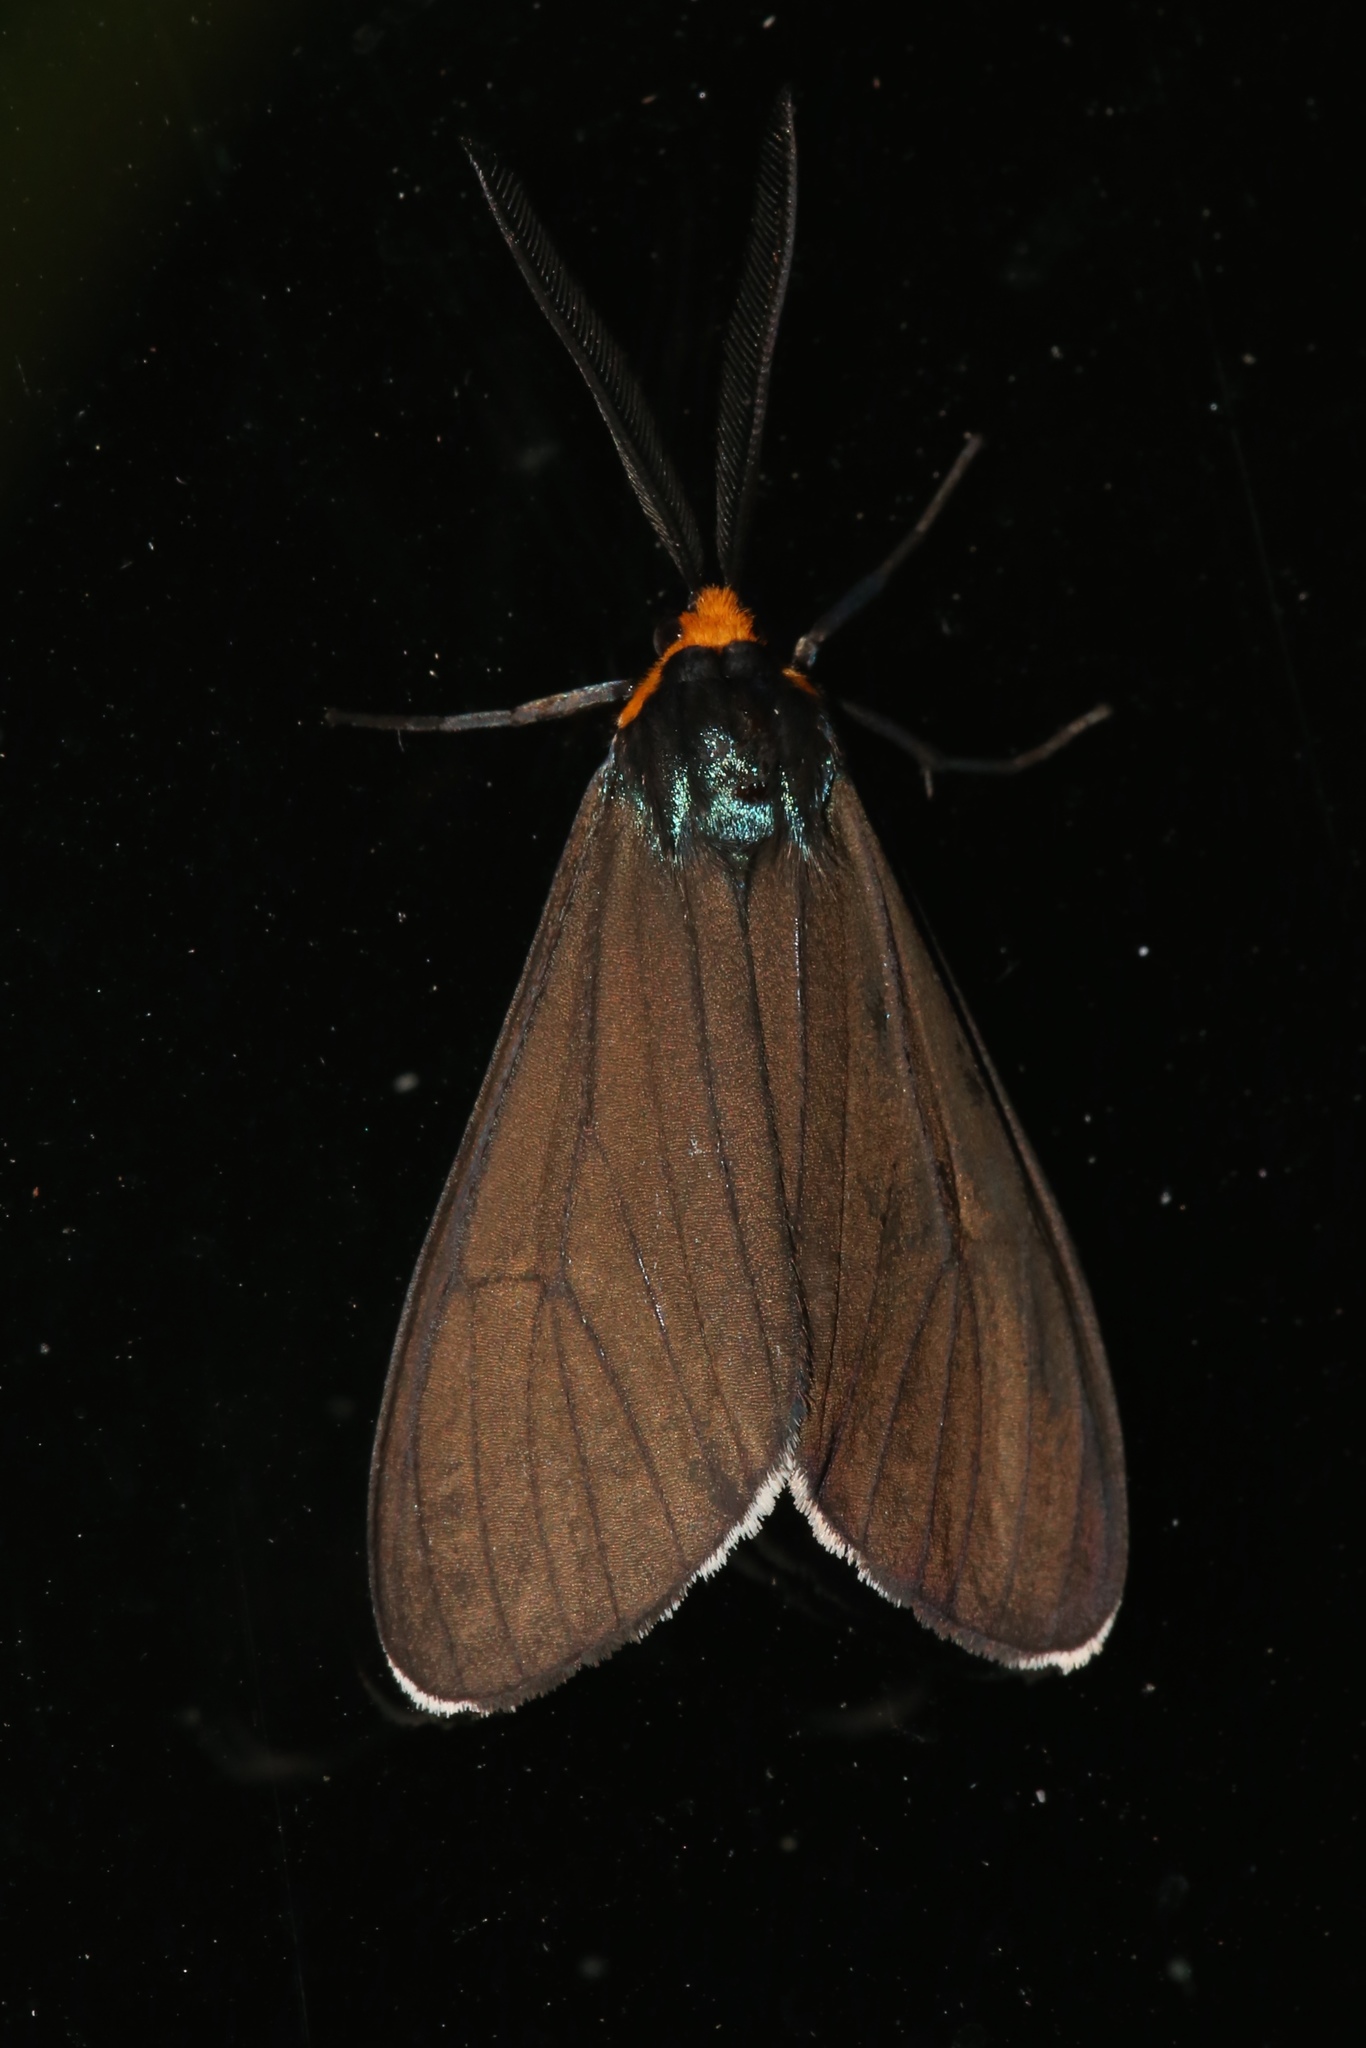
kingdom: Animalia
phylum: Arthropoda
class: Insecta
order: Lepidoptera
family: Erebidae
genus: Ctenucha
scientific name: Ctenucha virginica
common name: Virginia ctenucha moth
